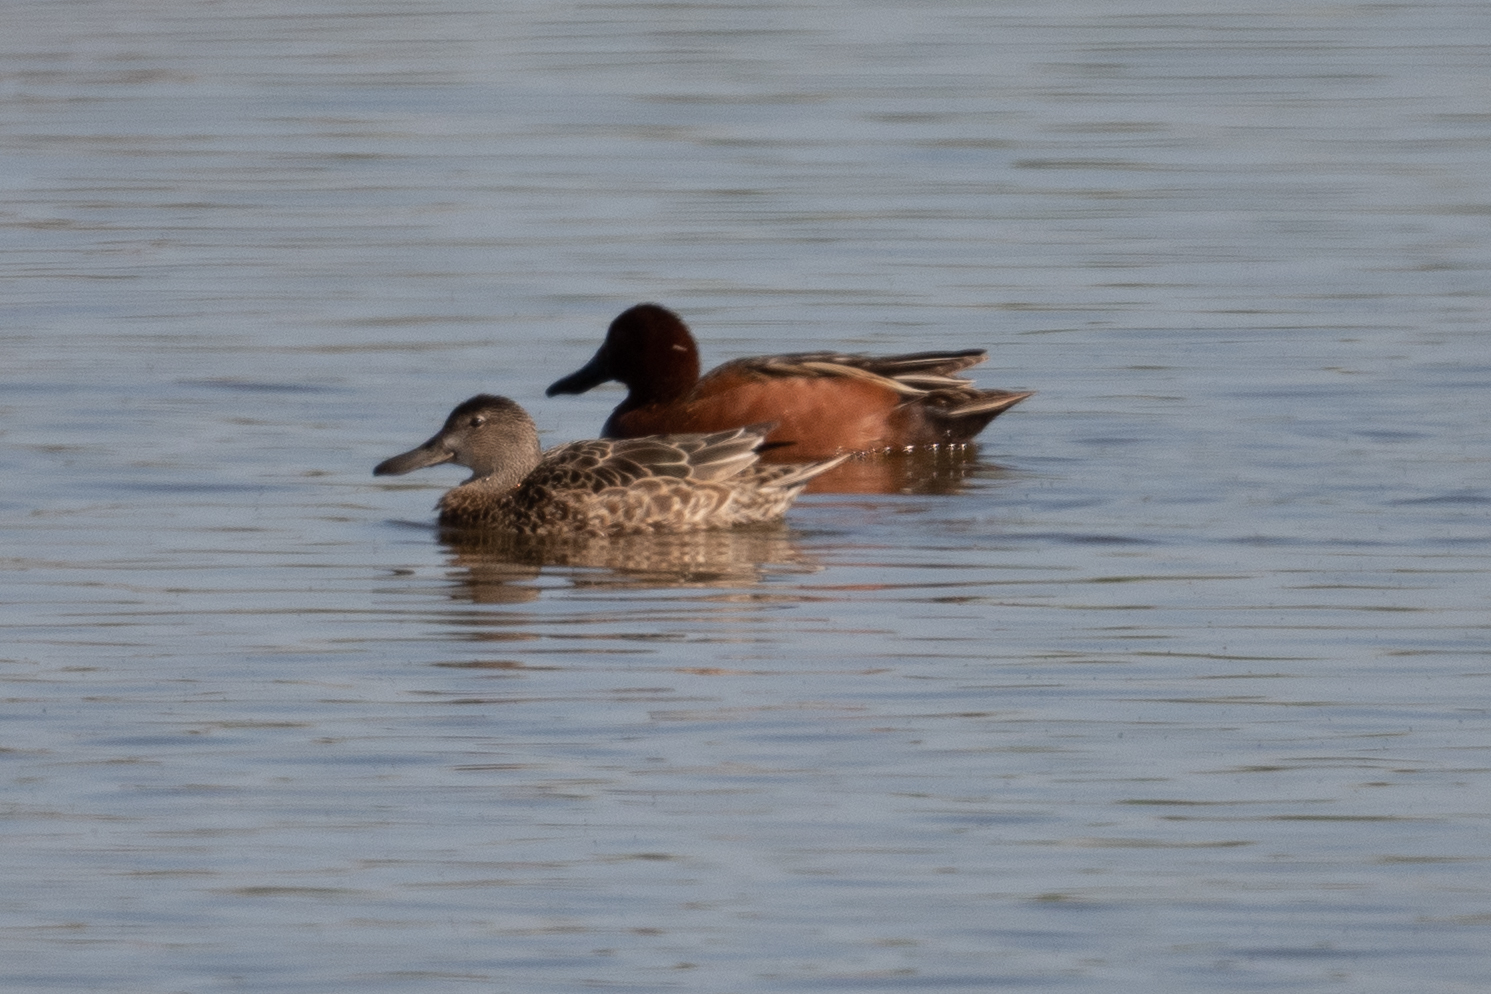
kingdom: Animalia
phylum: Chordata
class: Aves
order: Anseriformes
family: Anatidae
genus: Spatula
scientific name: Spatula cyanoptera
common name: Cinnamon teal
